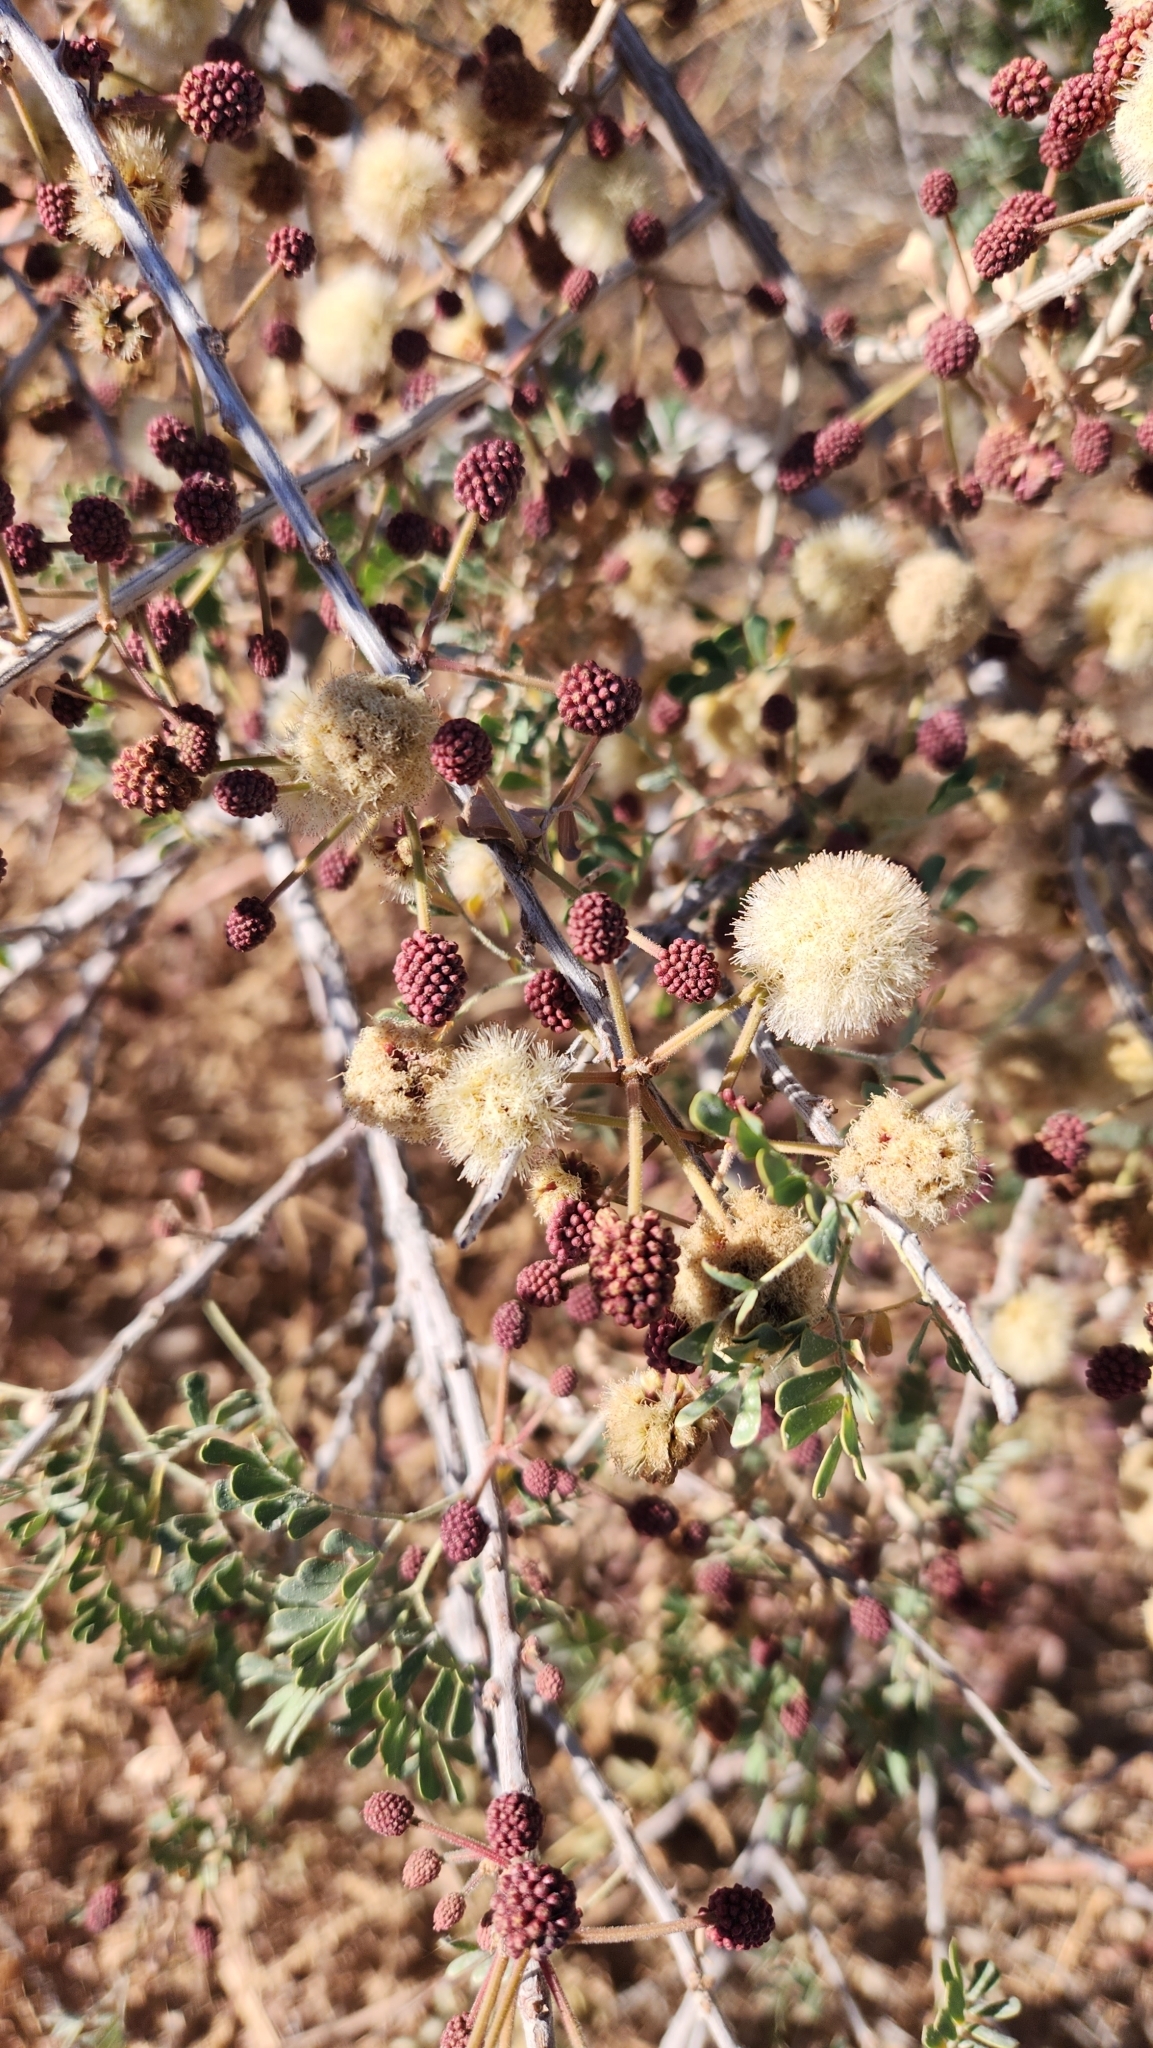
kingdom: Plantae
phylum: Tracheophyta
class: Magnoliopsida
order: Fabales
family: Fabaceae
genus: Senegalia
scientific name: Senegalia peninsularis
